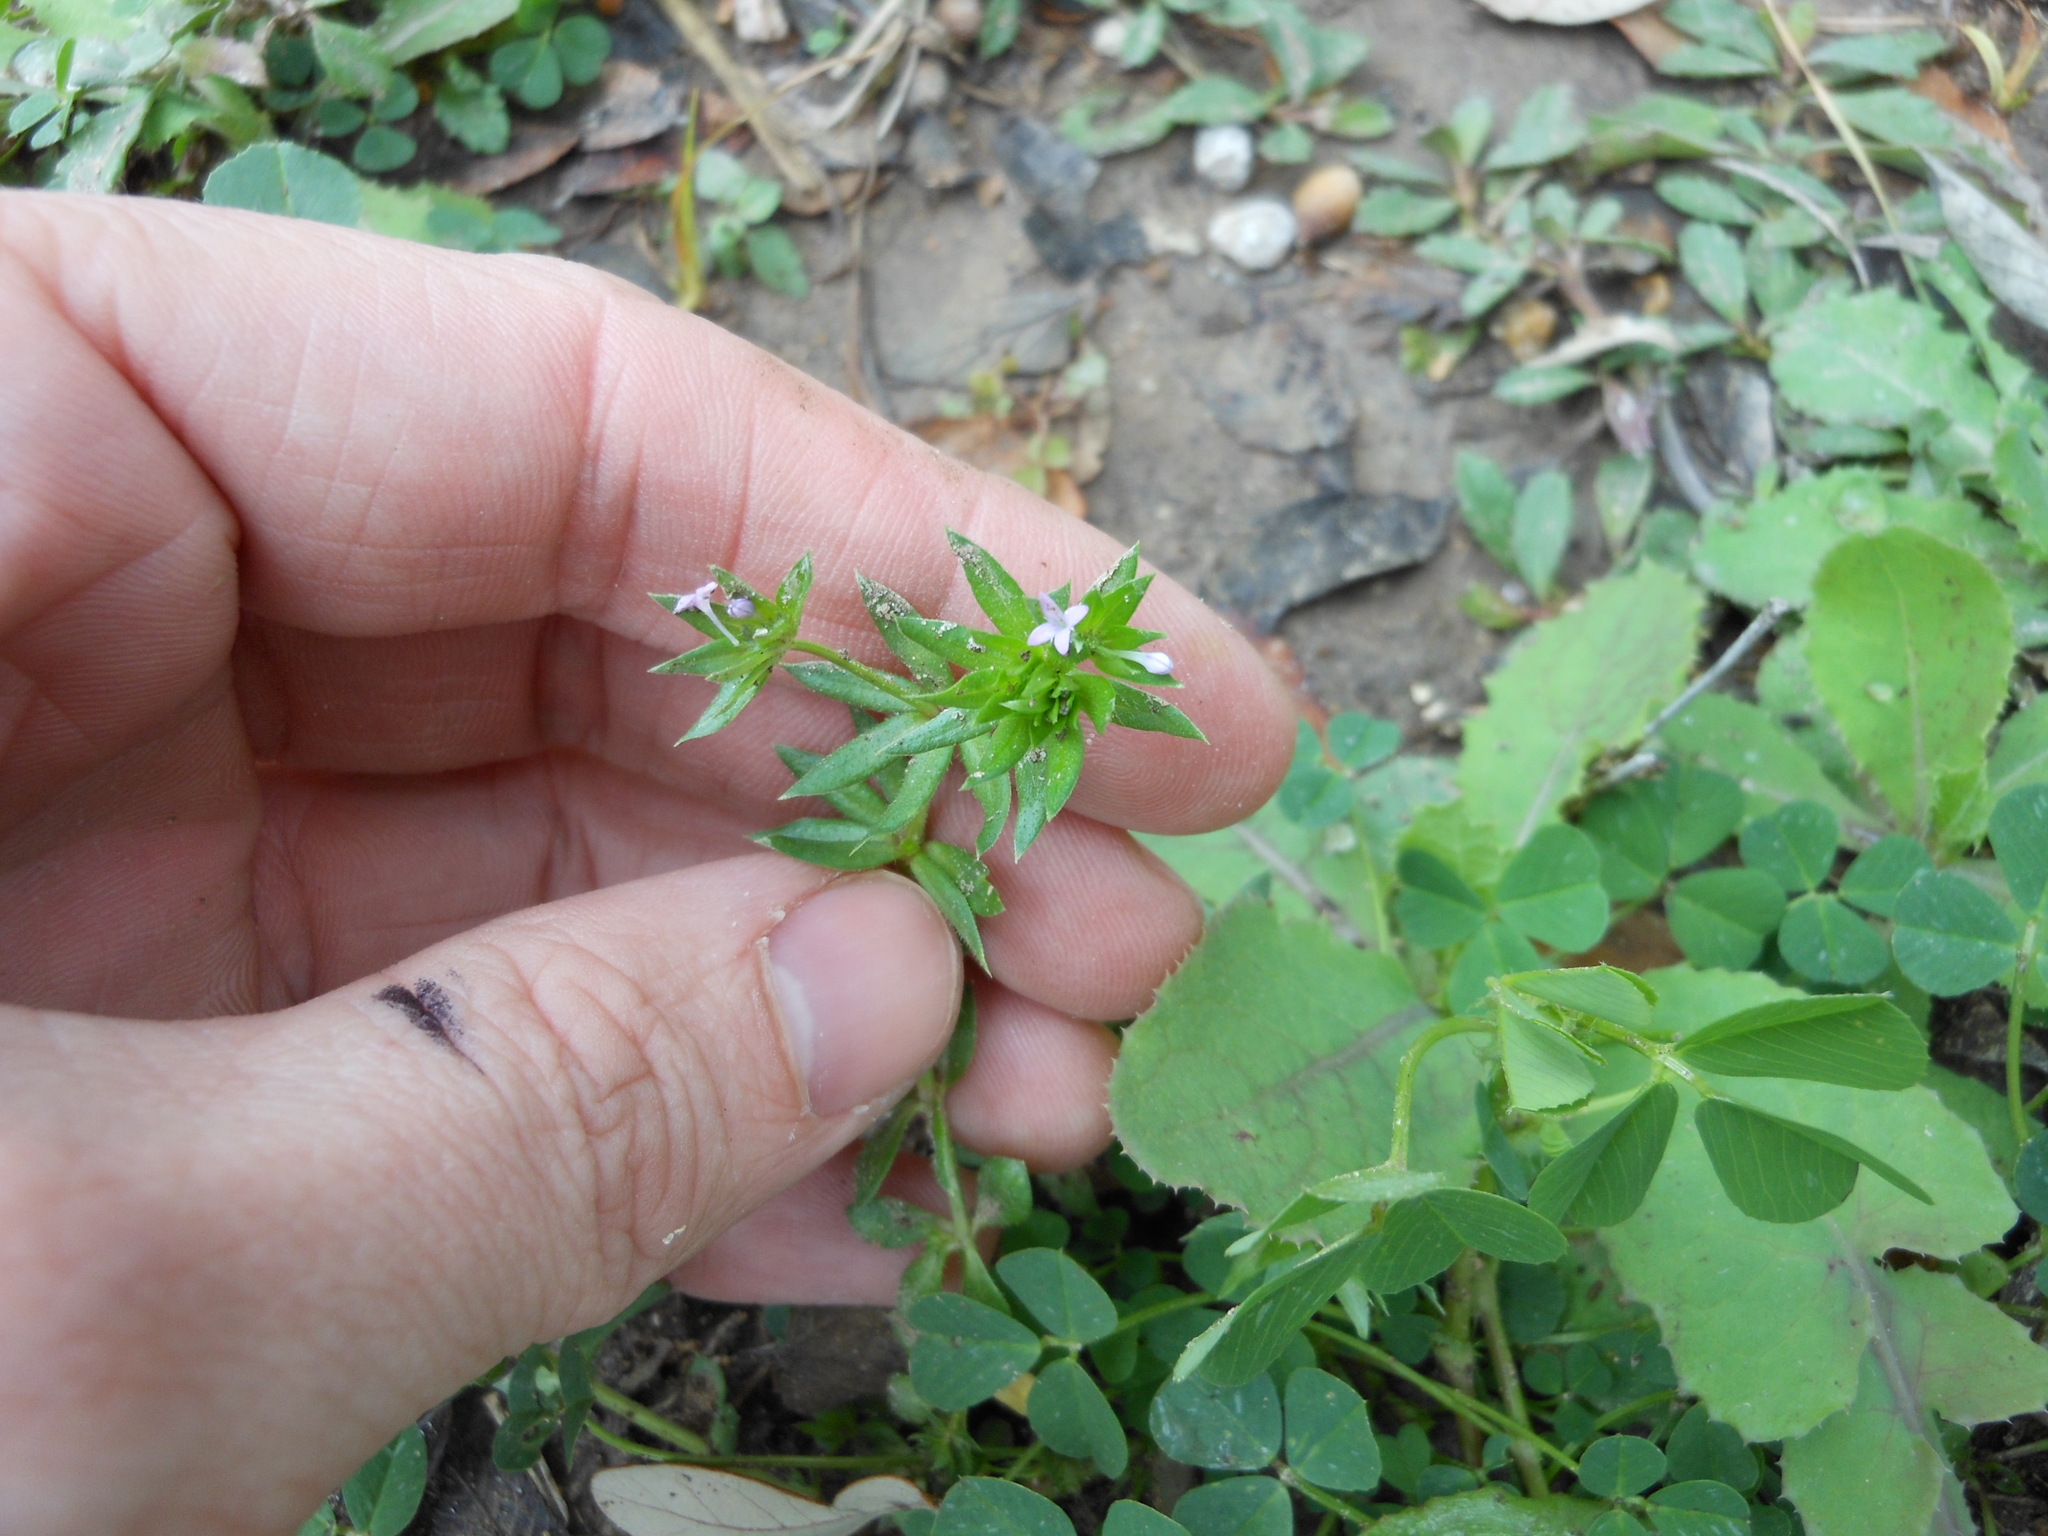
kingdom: Plantae
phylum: Tracheophyta
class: Magnoliopsida
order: Gentianales
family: Rubiaceae
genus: Sherardia
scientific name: Sherardia arvensis
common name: Field madder
